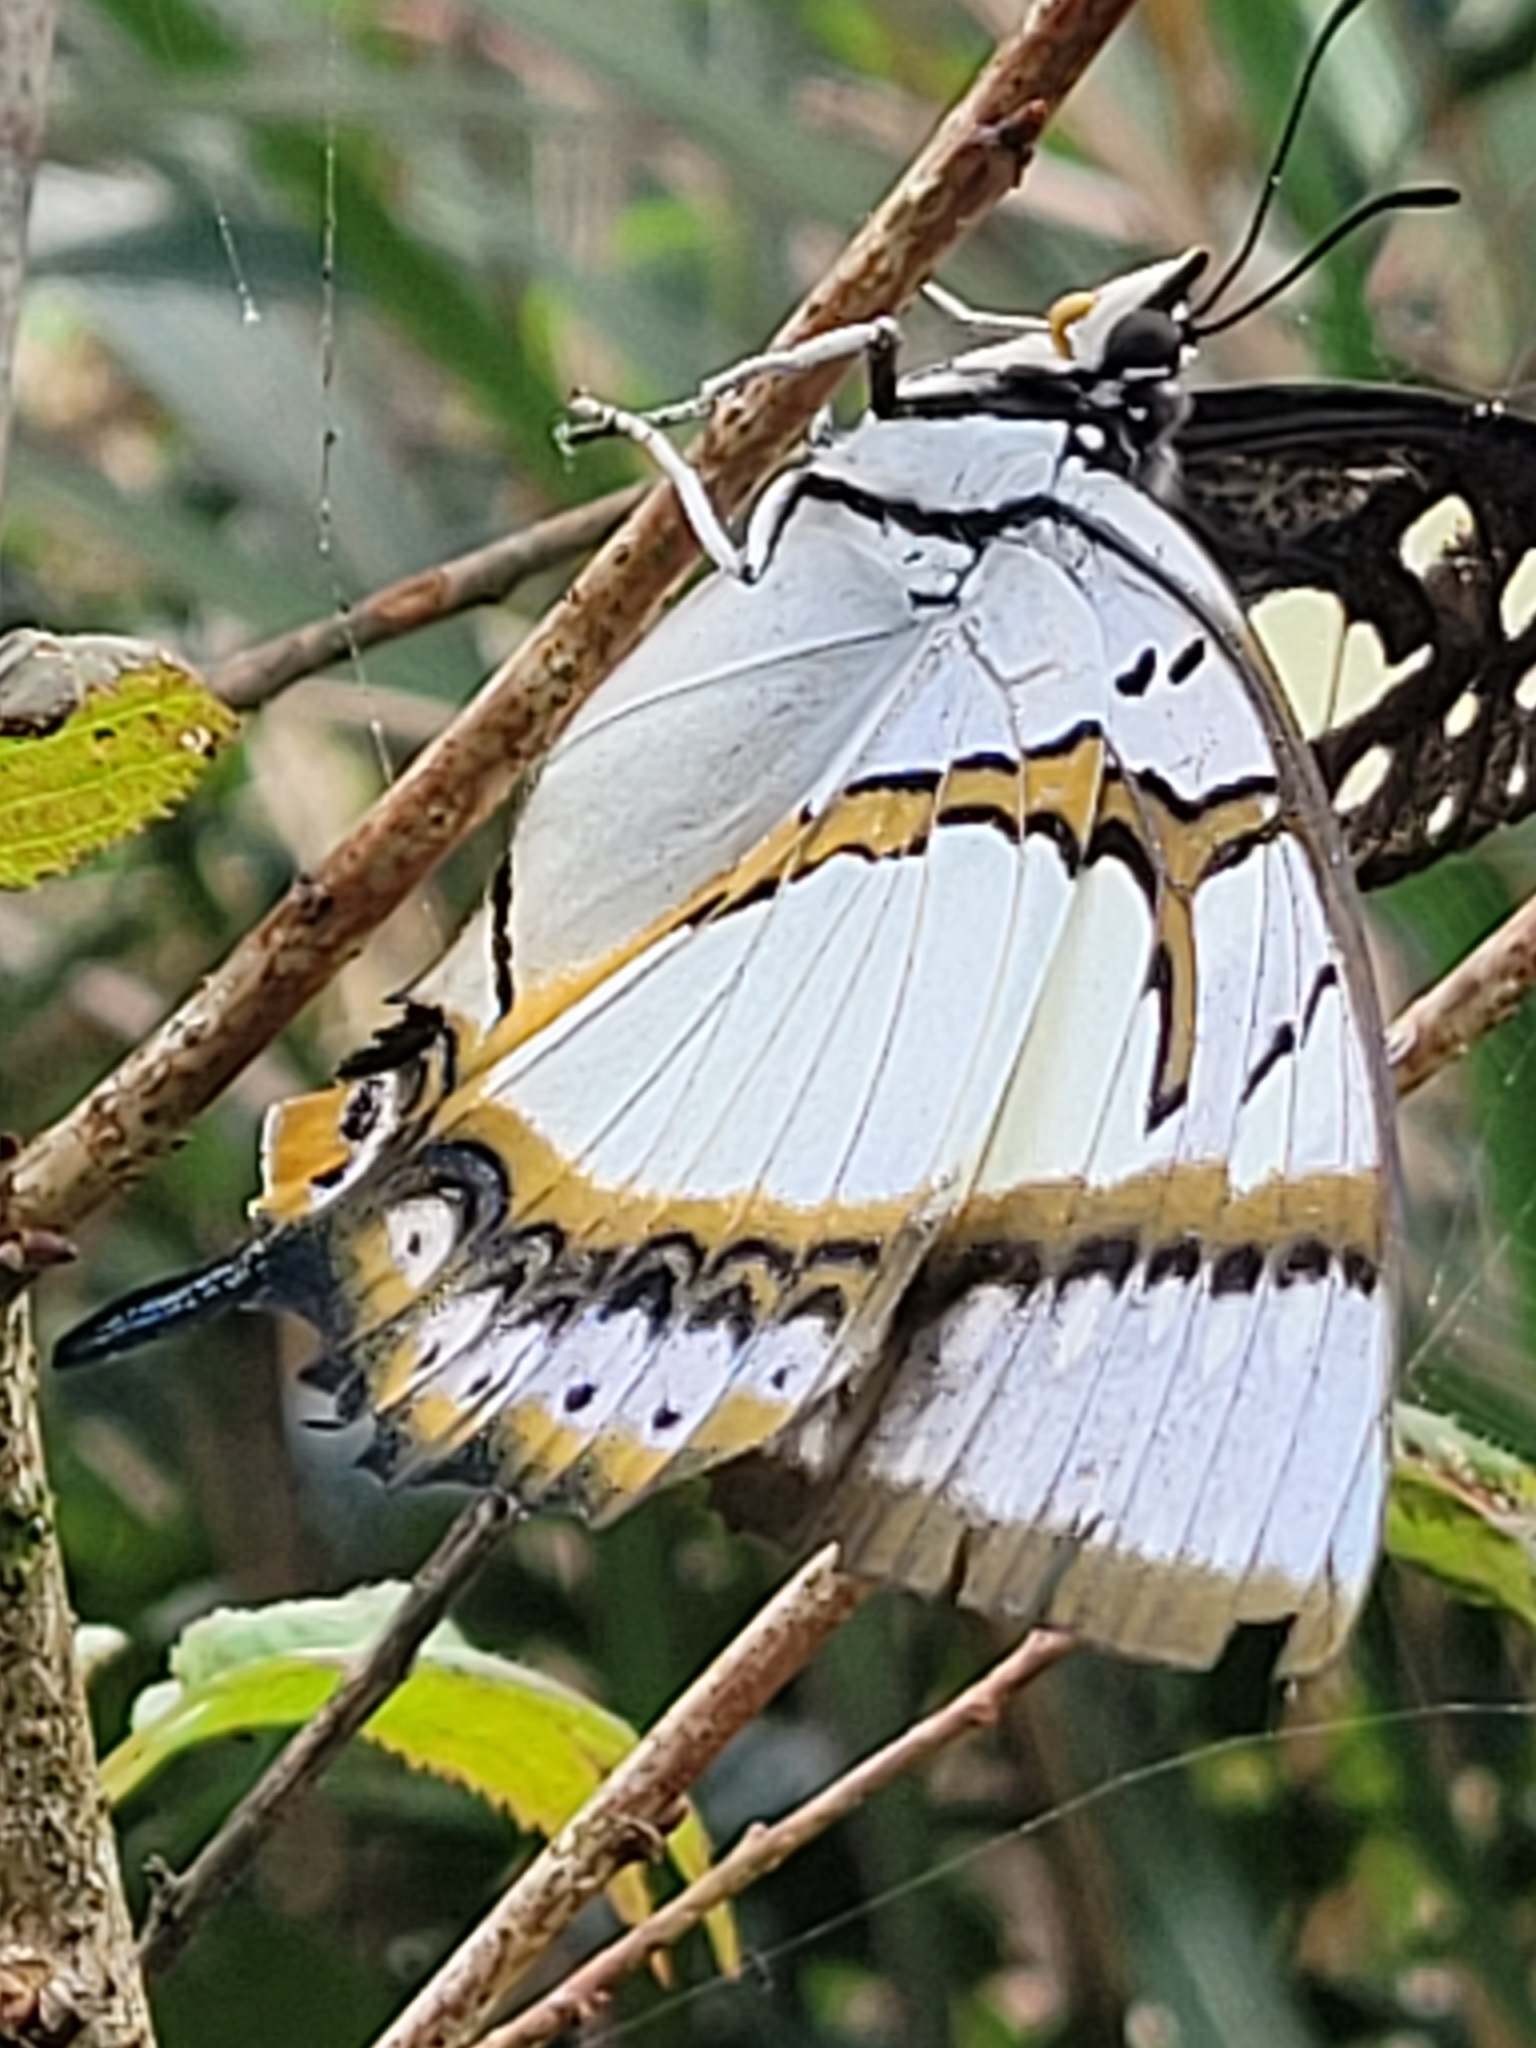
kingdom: Animalia
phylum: Arthropoda
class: Insecta
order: Lepidoptera
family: Nymphalidae
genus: Polyura
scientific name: Polyura eudamippus
